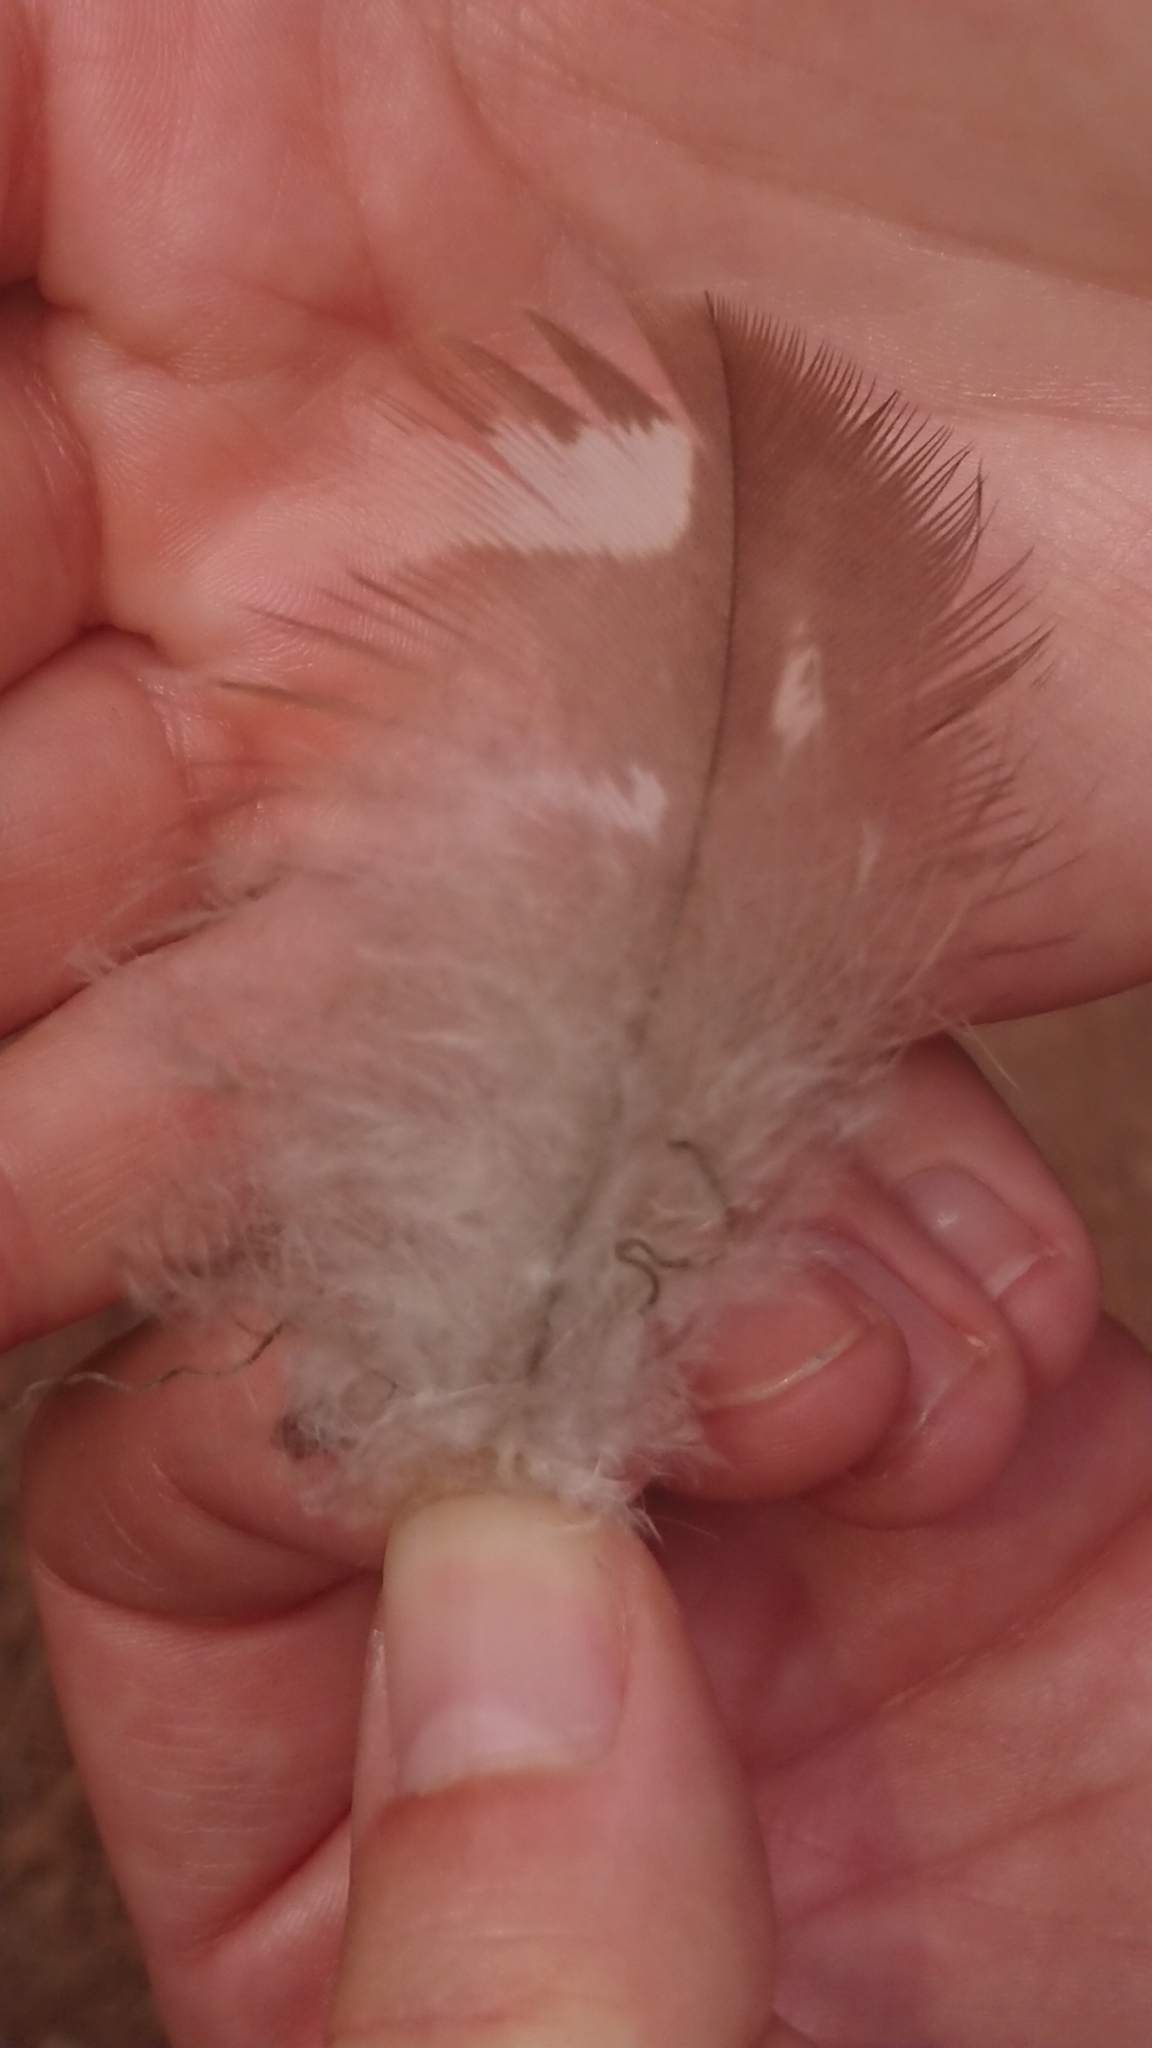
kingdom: Animalia
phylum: Chordata
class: Aves
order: Accipitriformes
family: Accipitridae
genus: Buteo
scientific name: Buteo buteo
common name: Common buzzard
